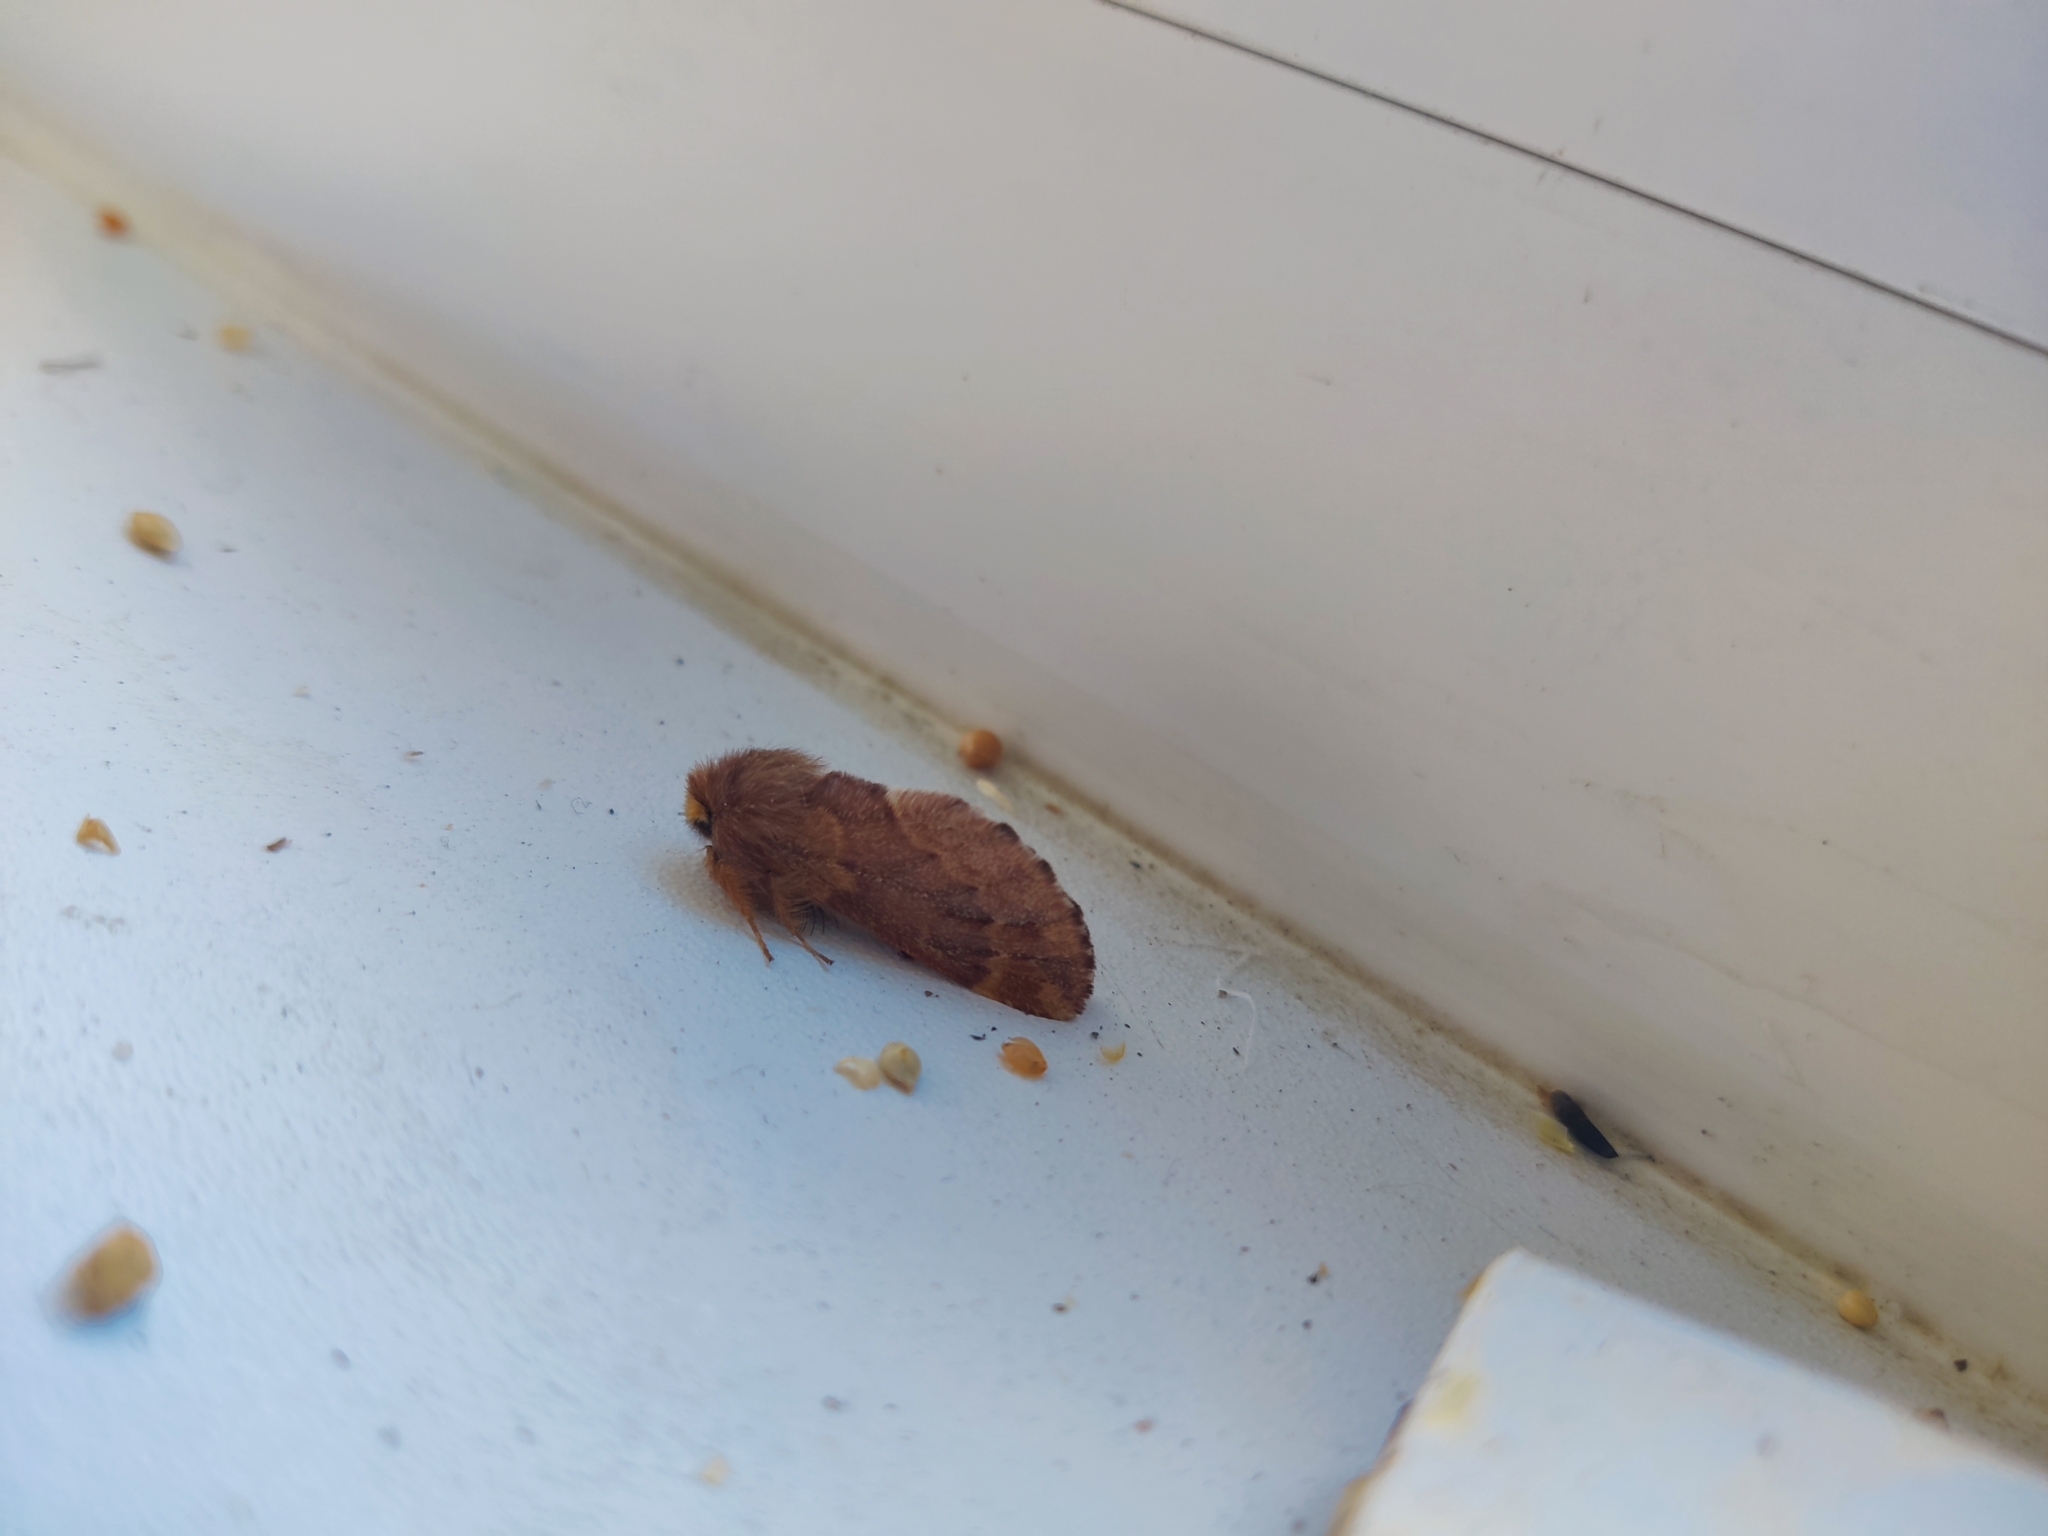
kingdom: Animalia
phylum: Arthropoda
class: Insecta
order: Lepidoptera
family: Notodontidae
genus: Ptilophora
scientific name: Ptilophora plumigera
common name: Plumed prominent
